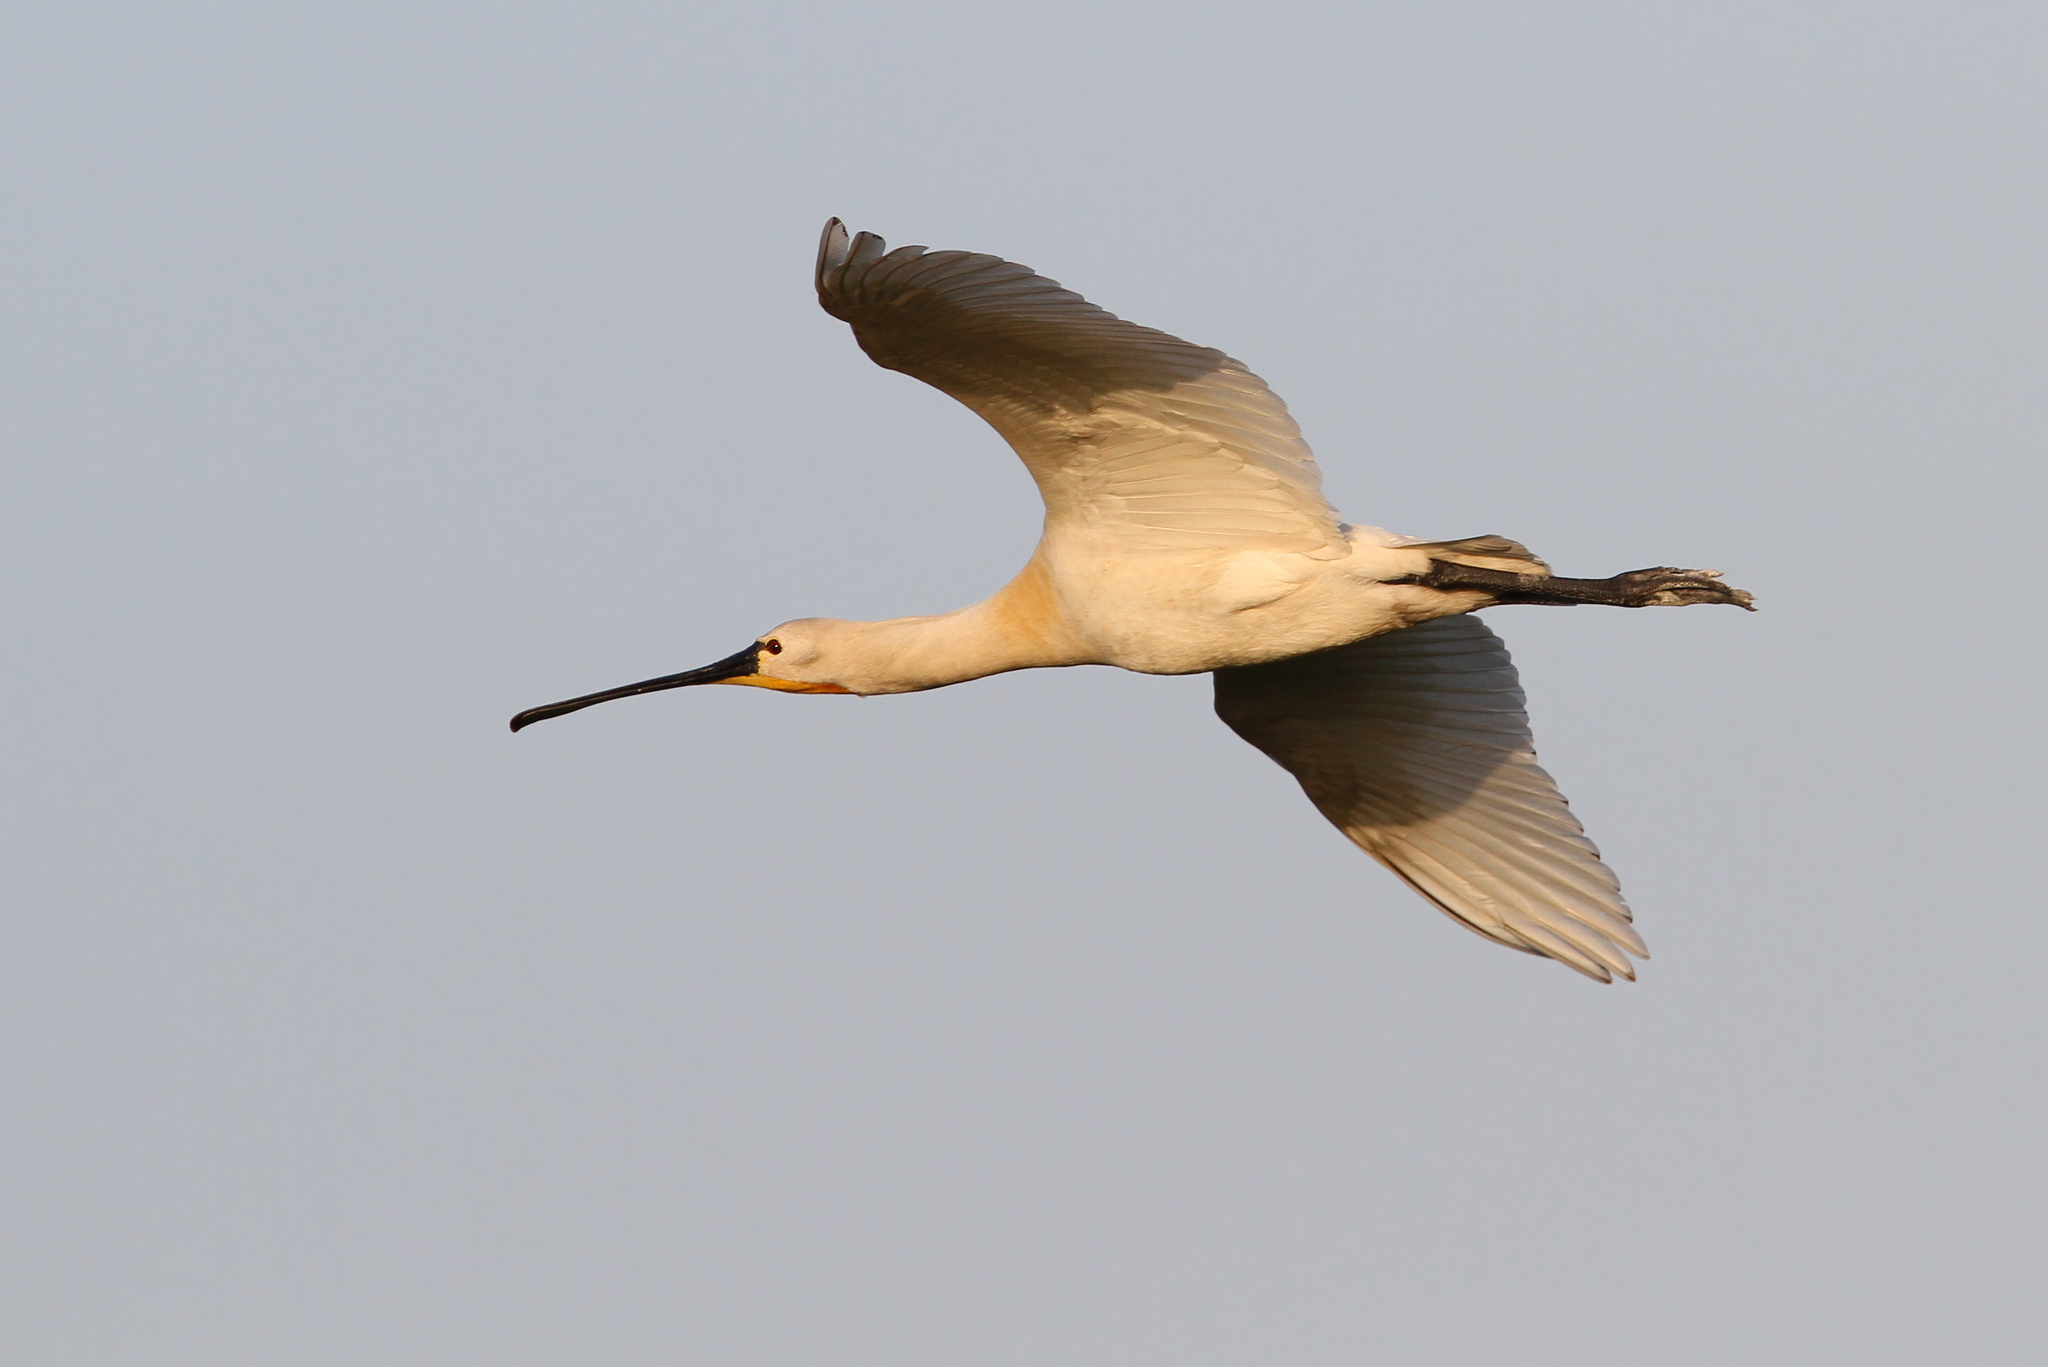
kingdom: Animalia
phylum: Chordata
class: Aves
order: Pelecaniformes
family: Threskiornithidae
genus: Platalea
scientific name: Platalea leucorodia
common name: Eurasian spoonbill
